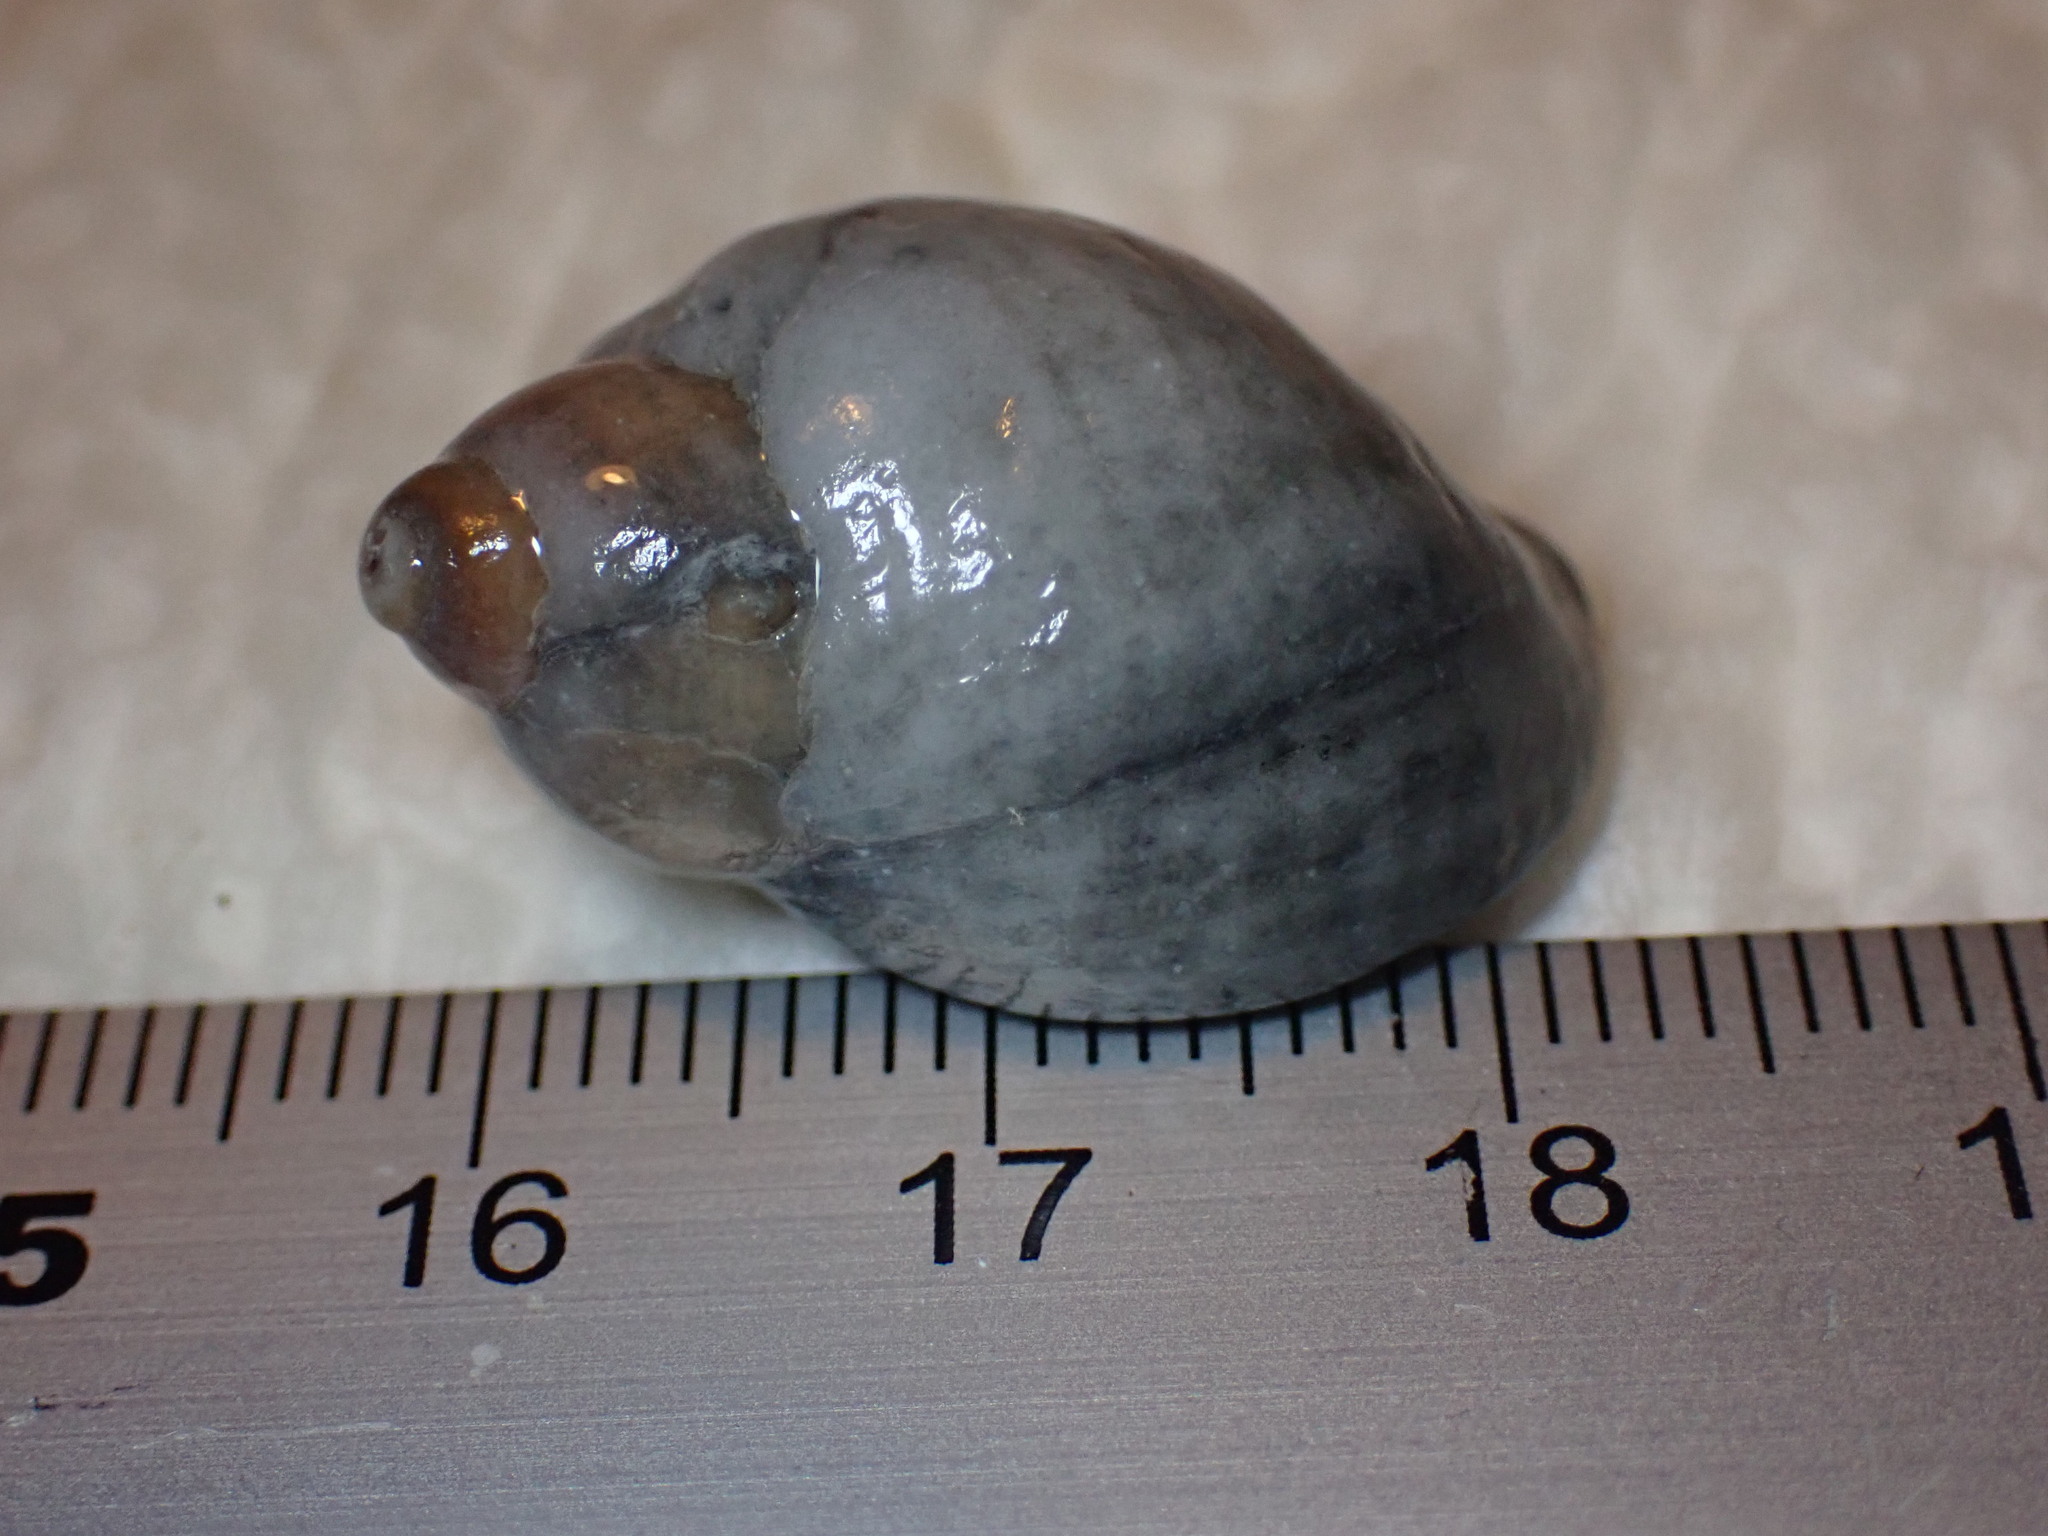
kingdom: Animalia
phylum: Mollusca
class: Gastropoda
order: Neogastropoda
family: Muricidae
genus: Nucella
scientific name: Nucella lapillus
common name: Dog whelk
